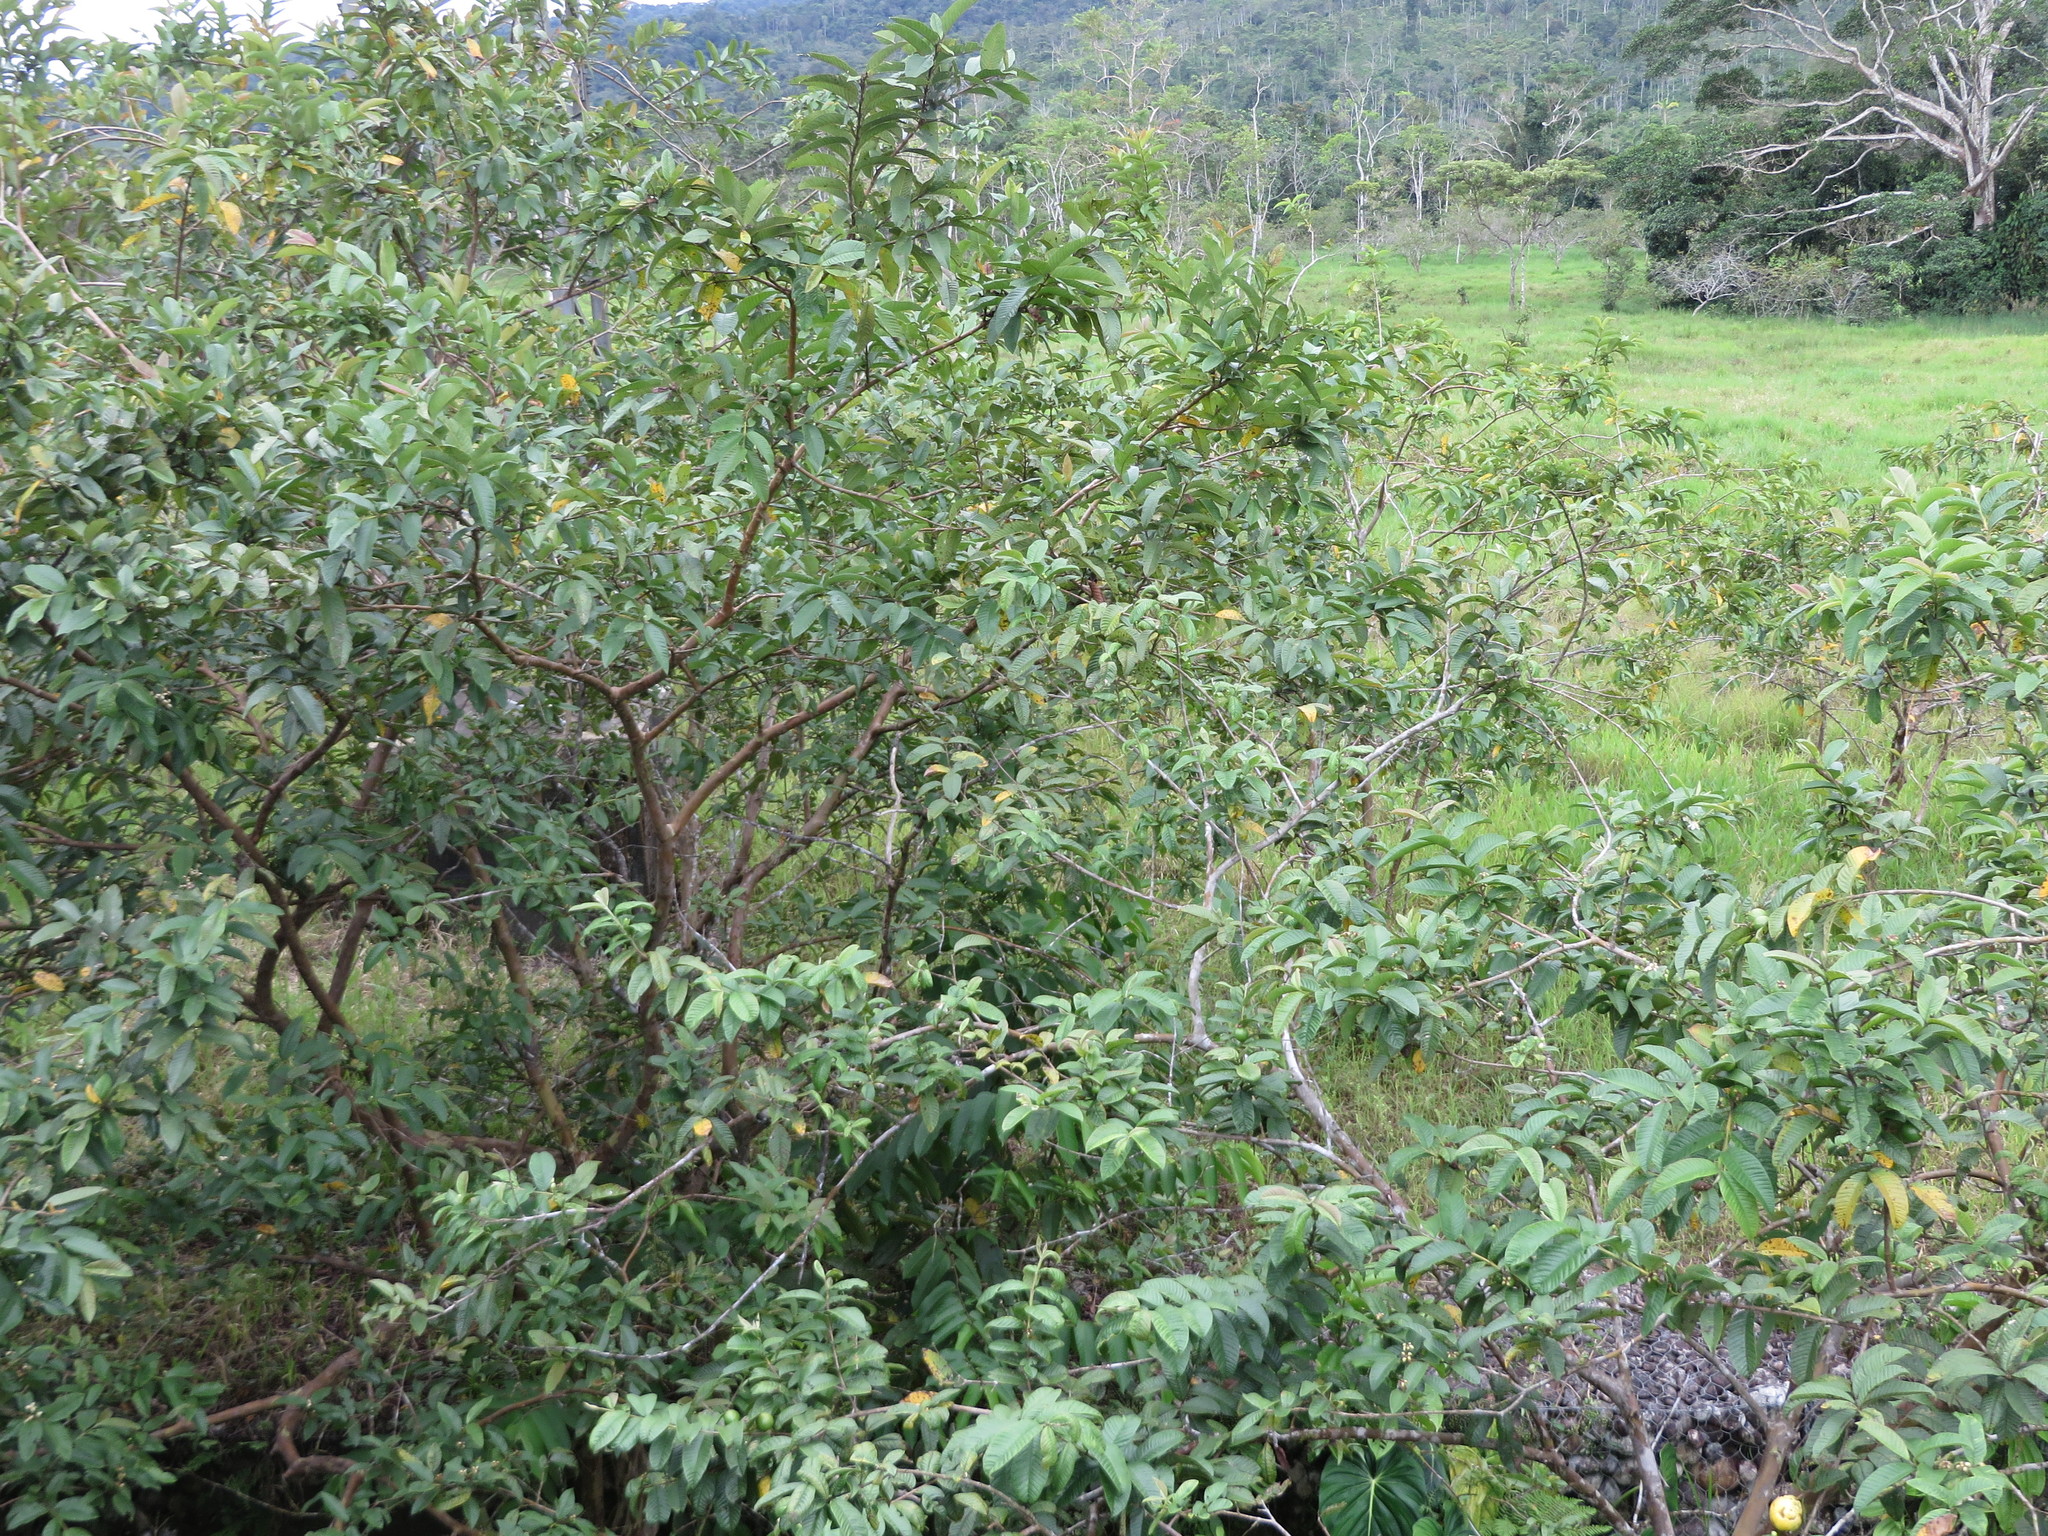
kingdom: Plantae
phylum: Tracheophyta
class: Magnoliopsida
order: Myrtales
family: Myrtaceae
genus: Psidium
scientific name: Psidium guajava
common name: Guava
